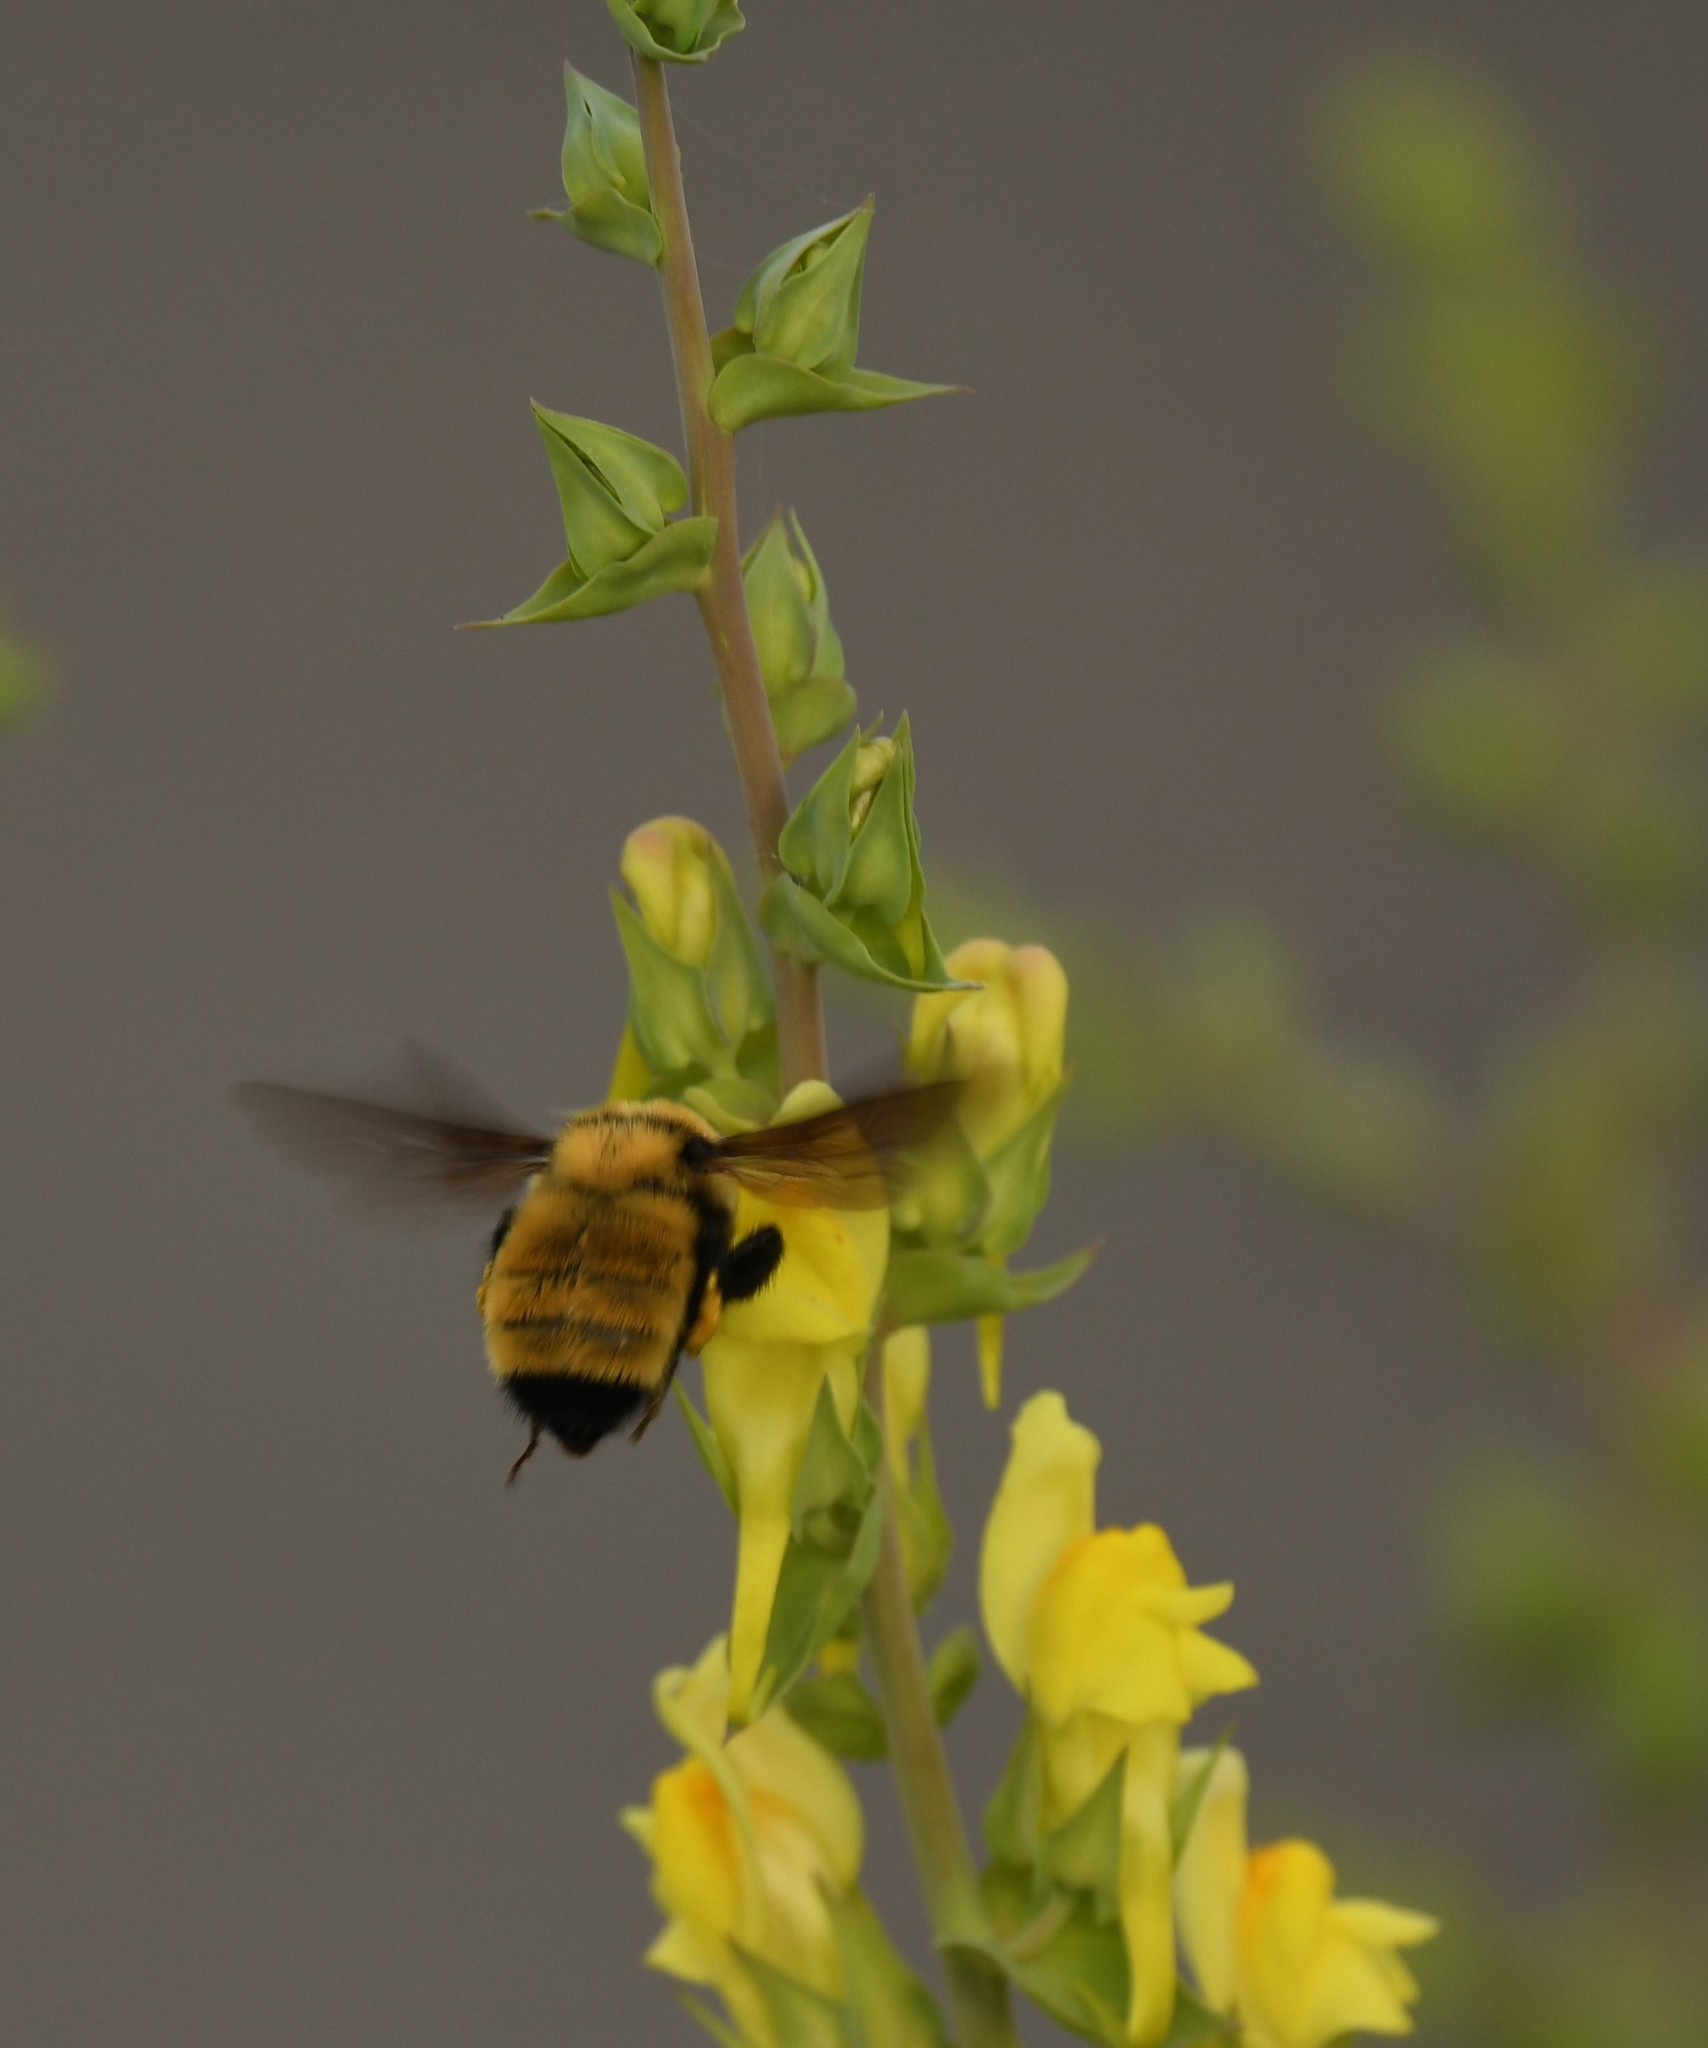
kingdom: Animalia
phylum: Arthropoda
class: Insecta
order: Hymenoptera
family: Apidae
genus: Bombus
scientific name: Bombus fervidus
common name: Yellow bumble bee
